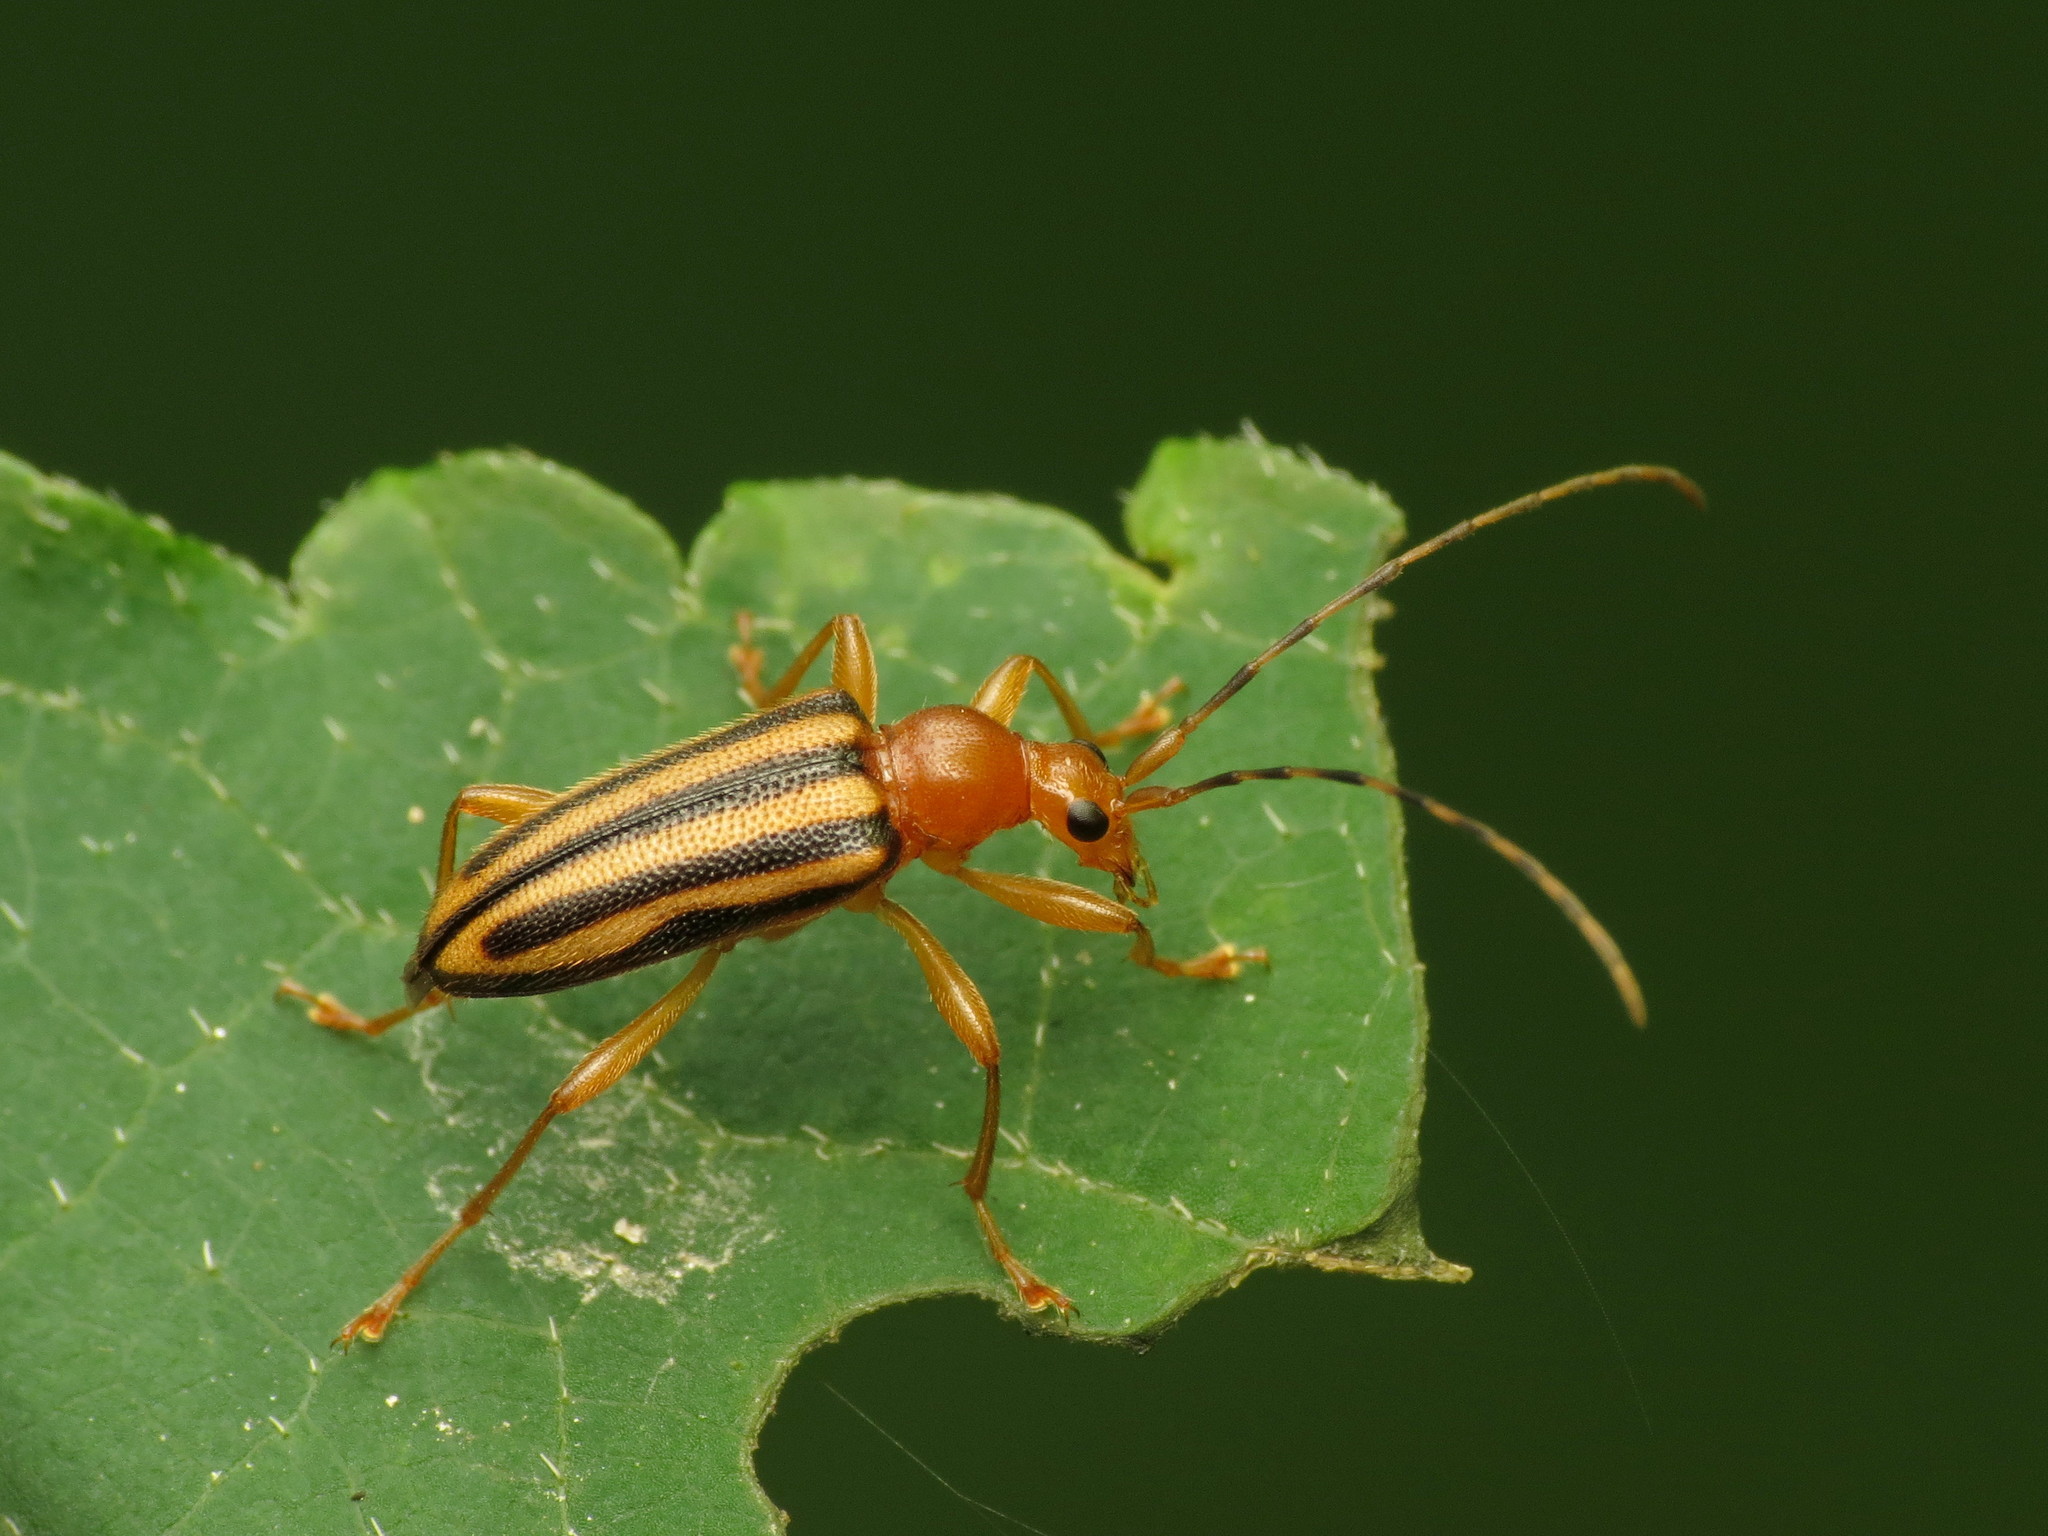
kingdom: Animalia
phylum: Arthropoda
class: Insecta
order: Coleoptera
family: Cerambycidae
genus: Metacmaeops
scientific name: Metacmaeops vittata
